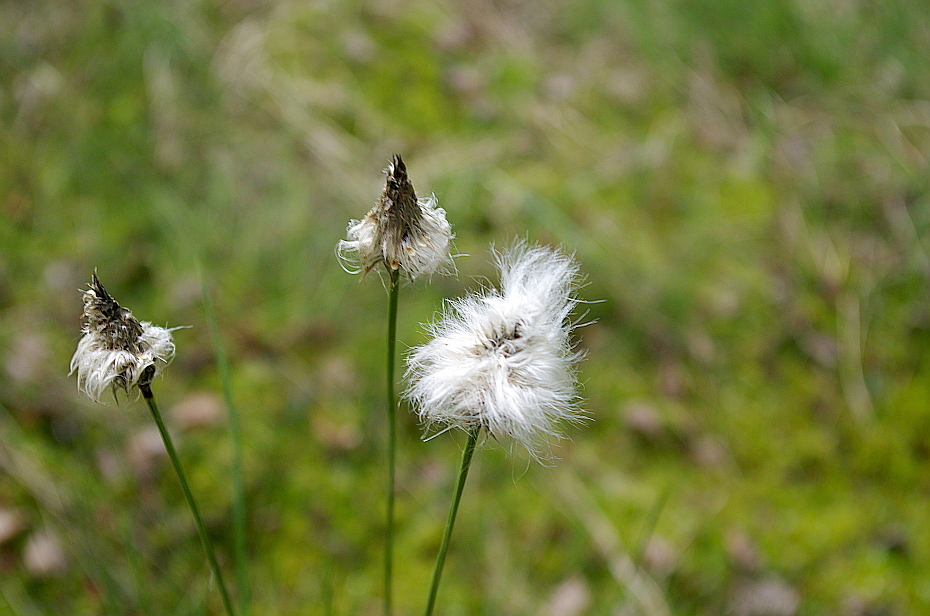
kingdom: Plantae
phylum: Tracheophyta
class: Liliopsida
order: Poales
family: Cyperaceae
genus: Eriophorum
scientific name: Eriophorum vaginatum
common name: Hare's-tail cottongrass
